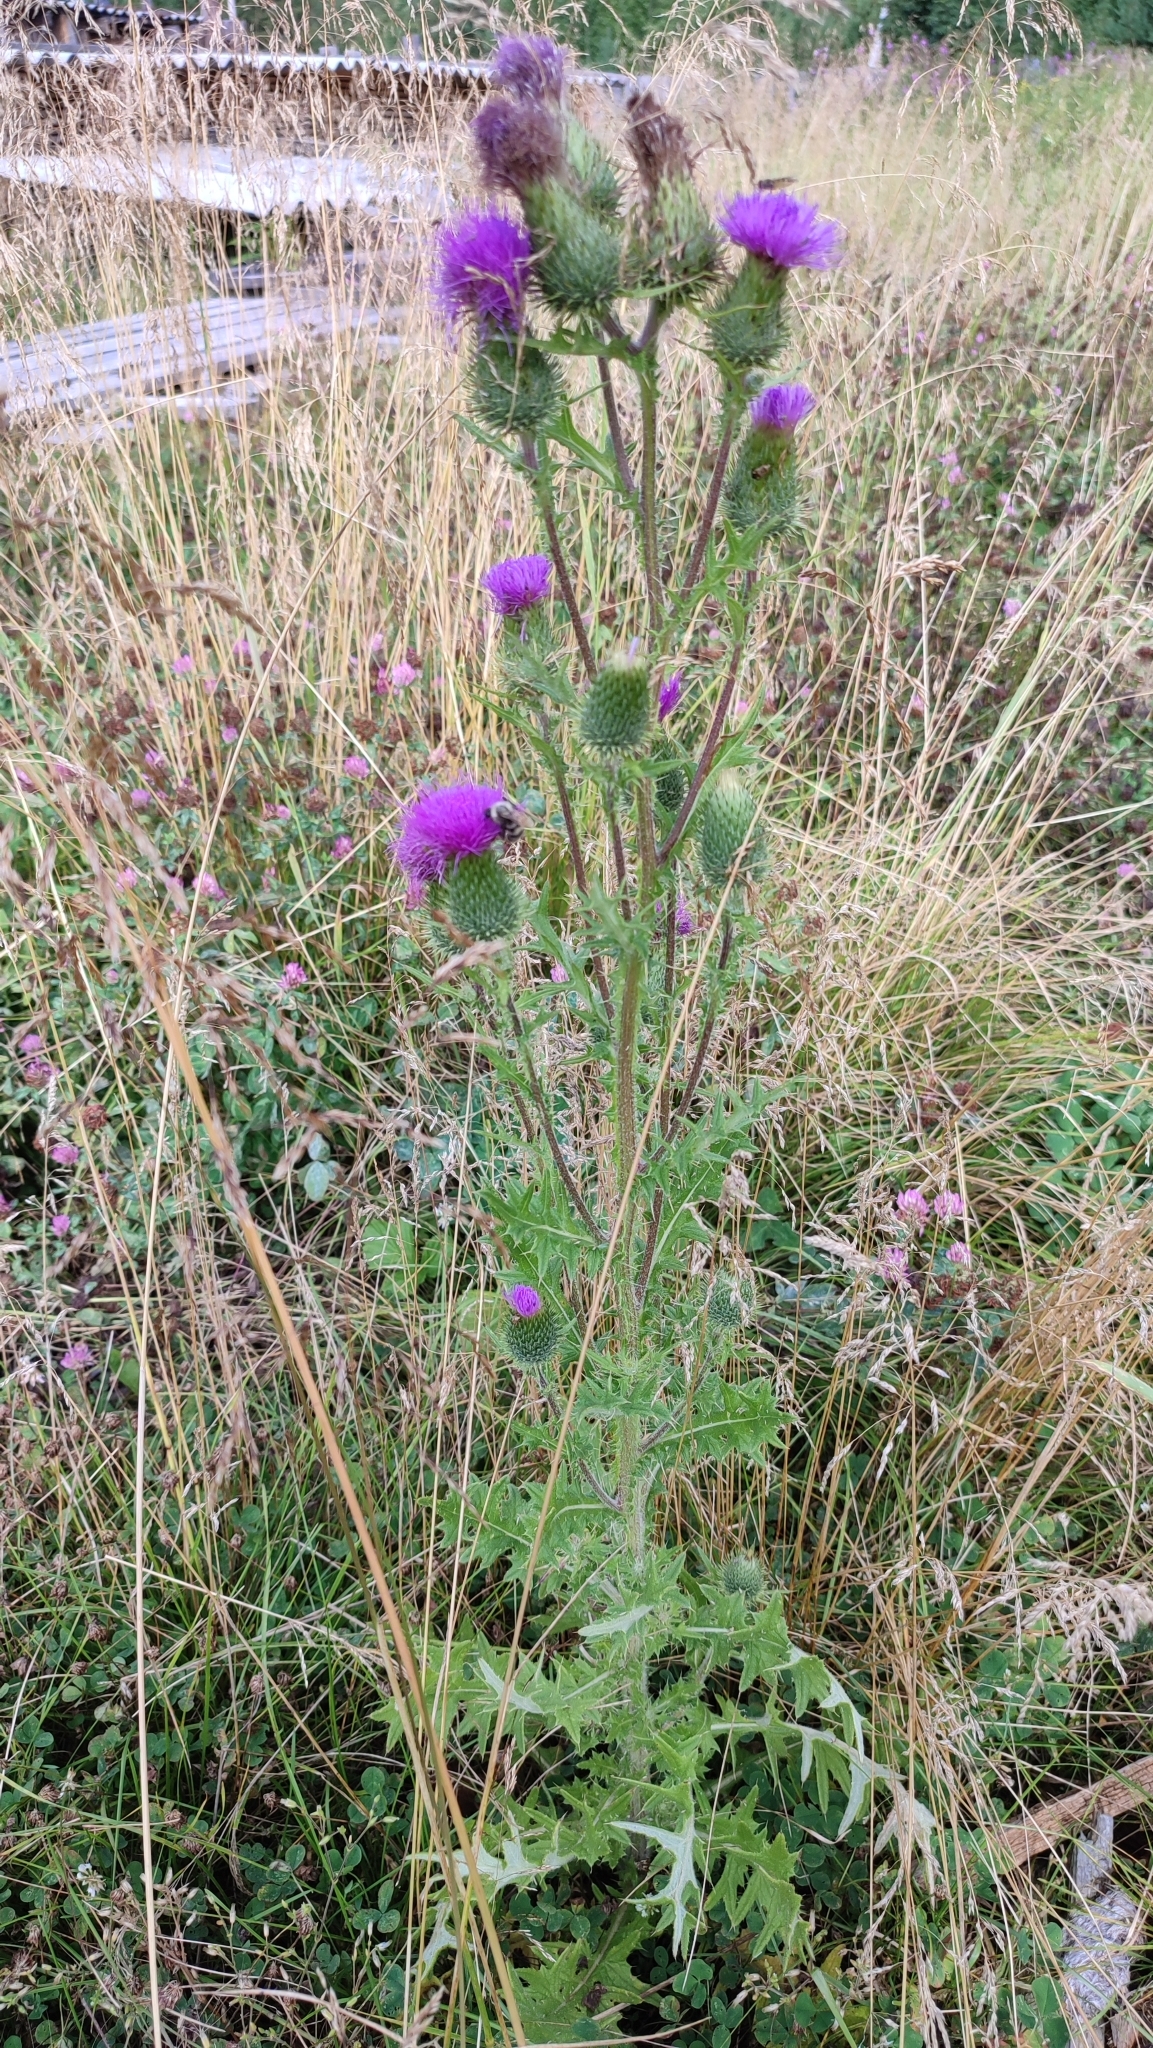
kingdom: Plantae
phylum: Tracheophyta
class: Magnoliopsida
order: Asterales
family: Asteraceae
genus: Cirsium
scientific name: Cirsium vulgare
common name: Bull thistle
